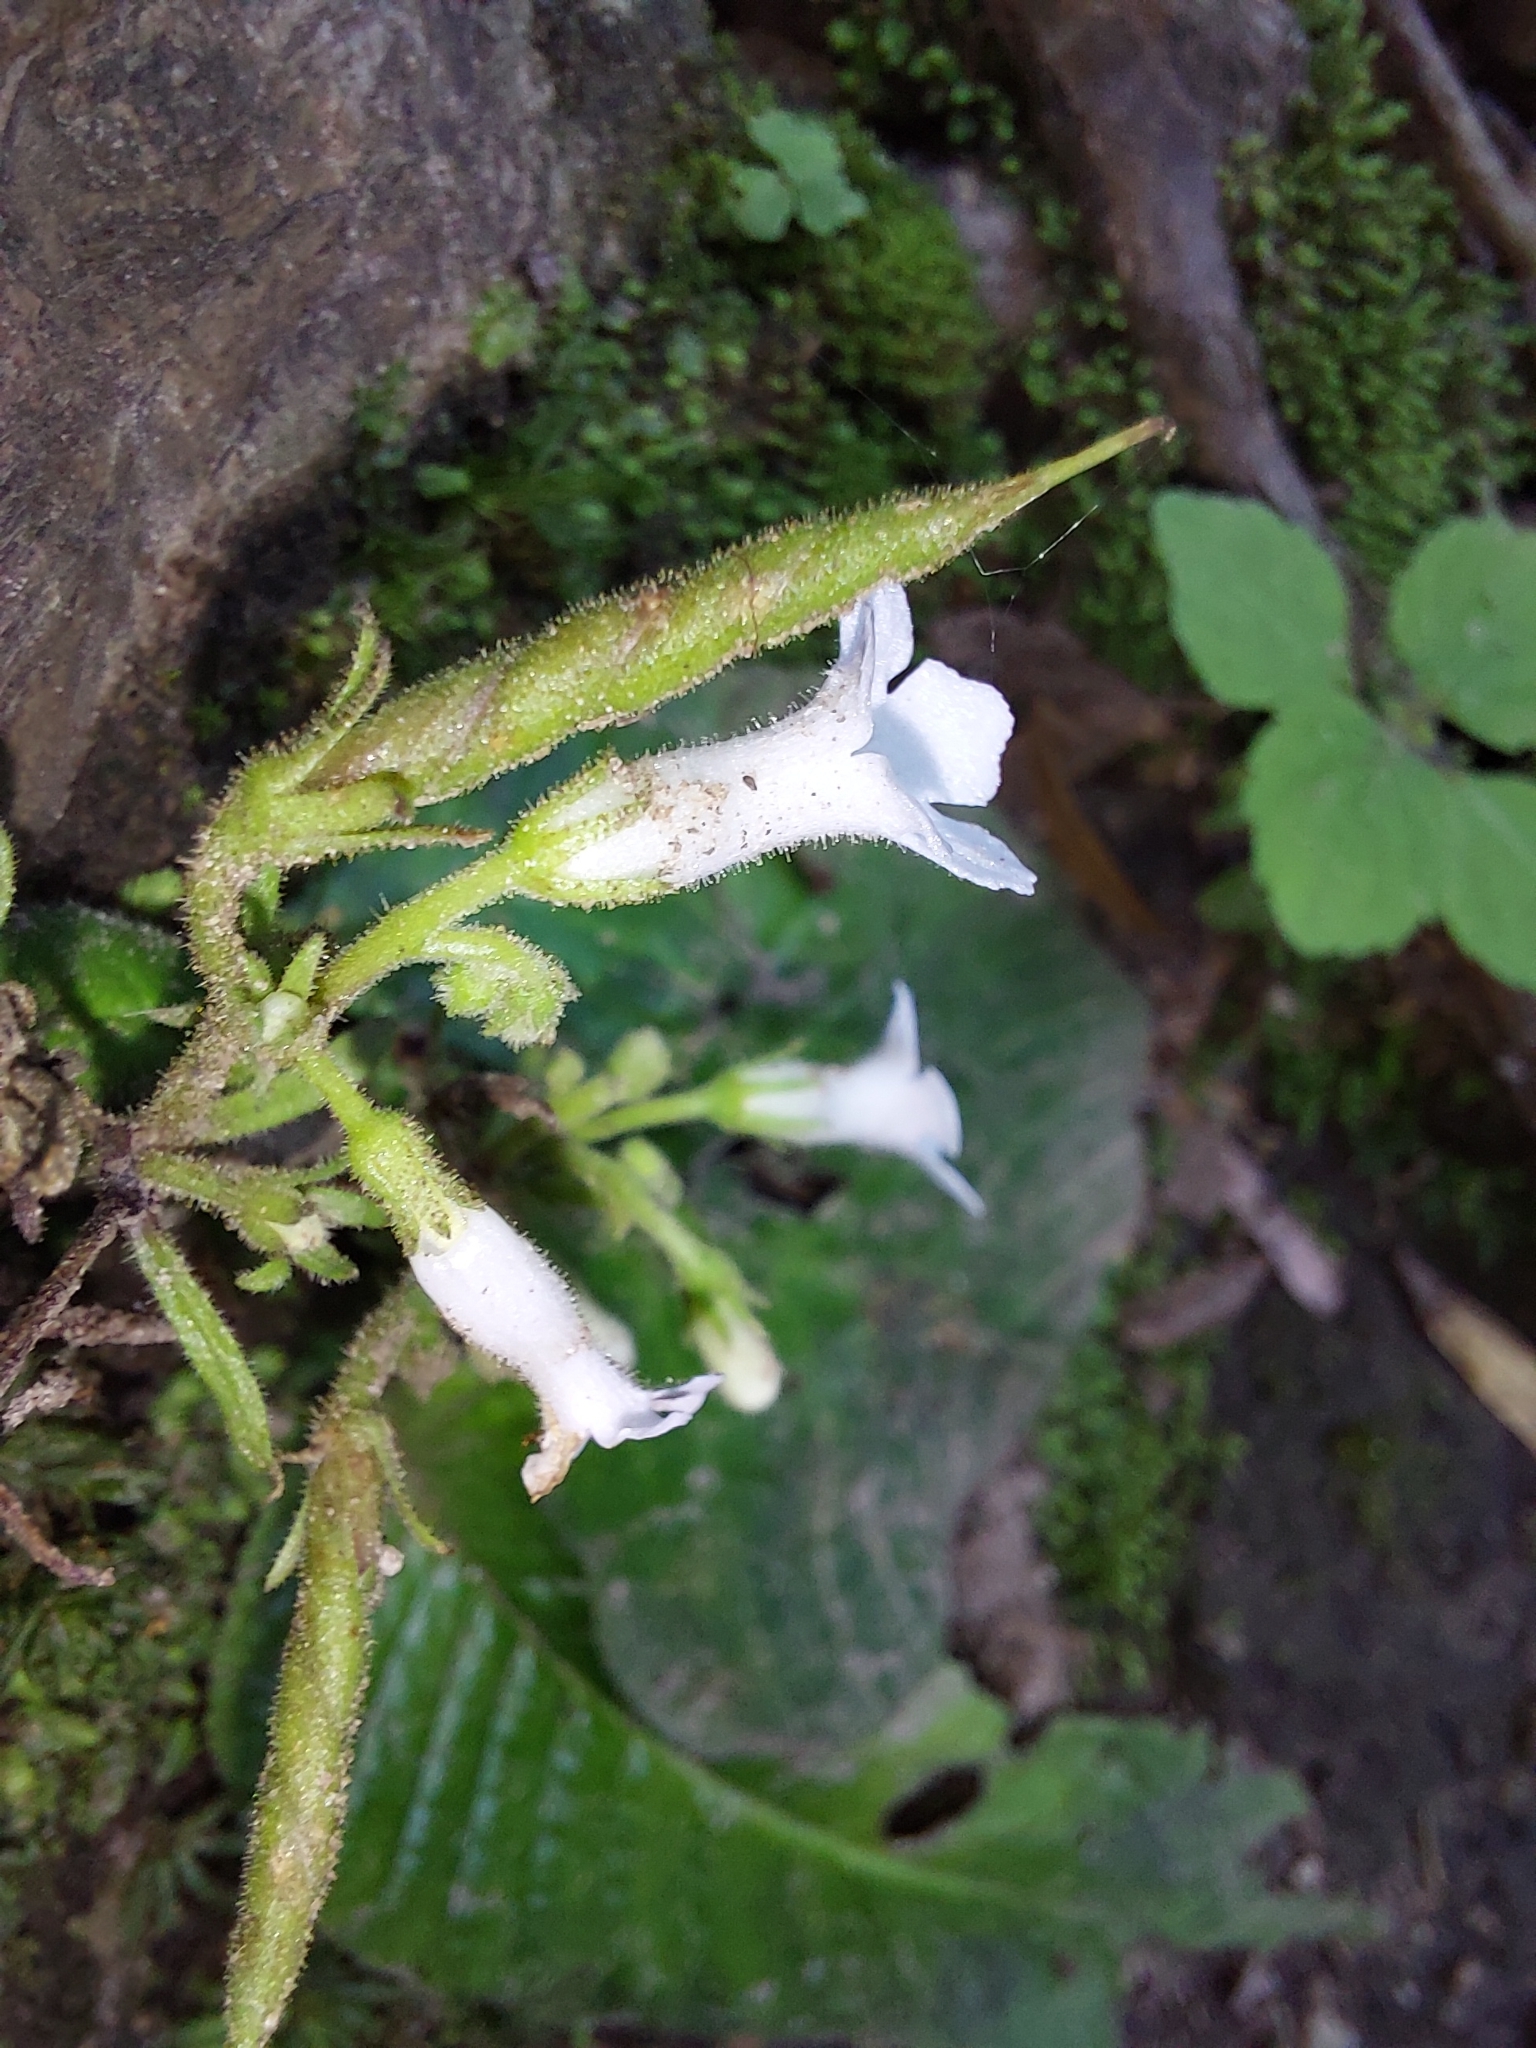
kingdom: Plantae
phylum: Tracheophyta
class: Magnoliopsida
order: Lamiales
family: Gesneriaceae
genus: Streptocarpus
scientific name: Streptocarpus pusillus
